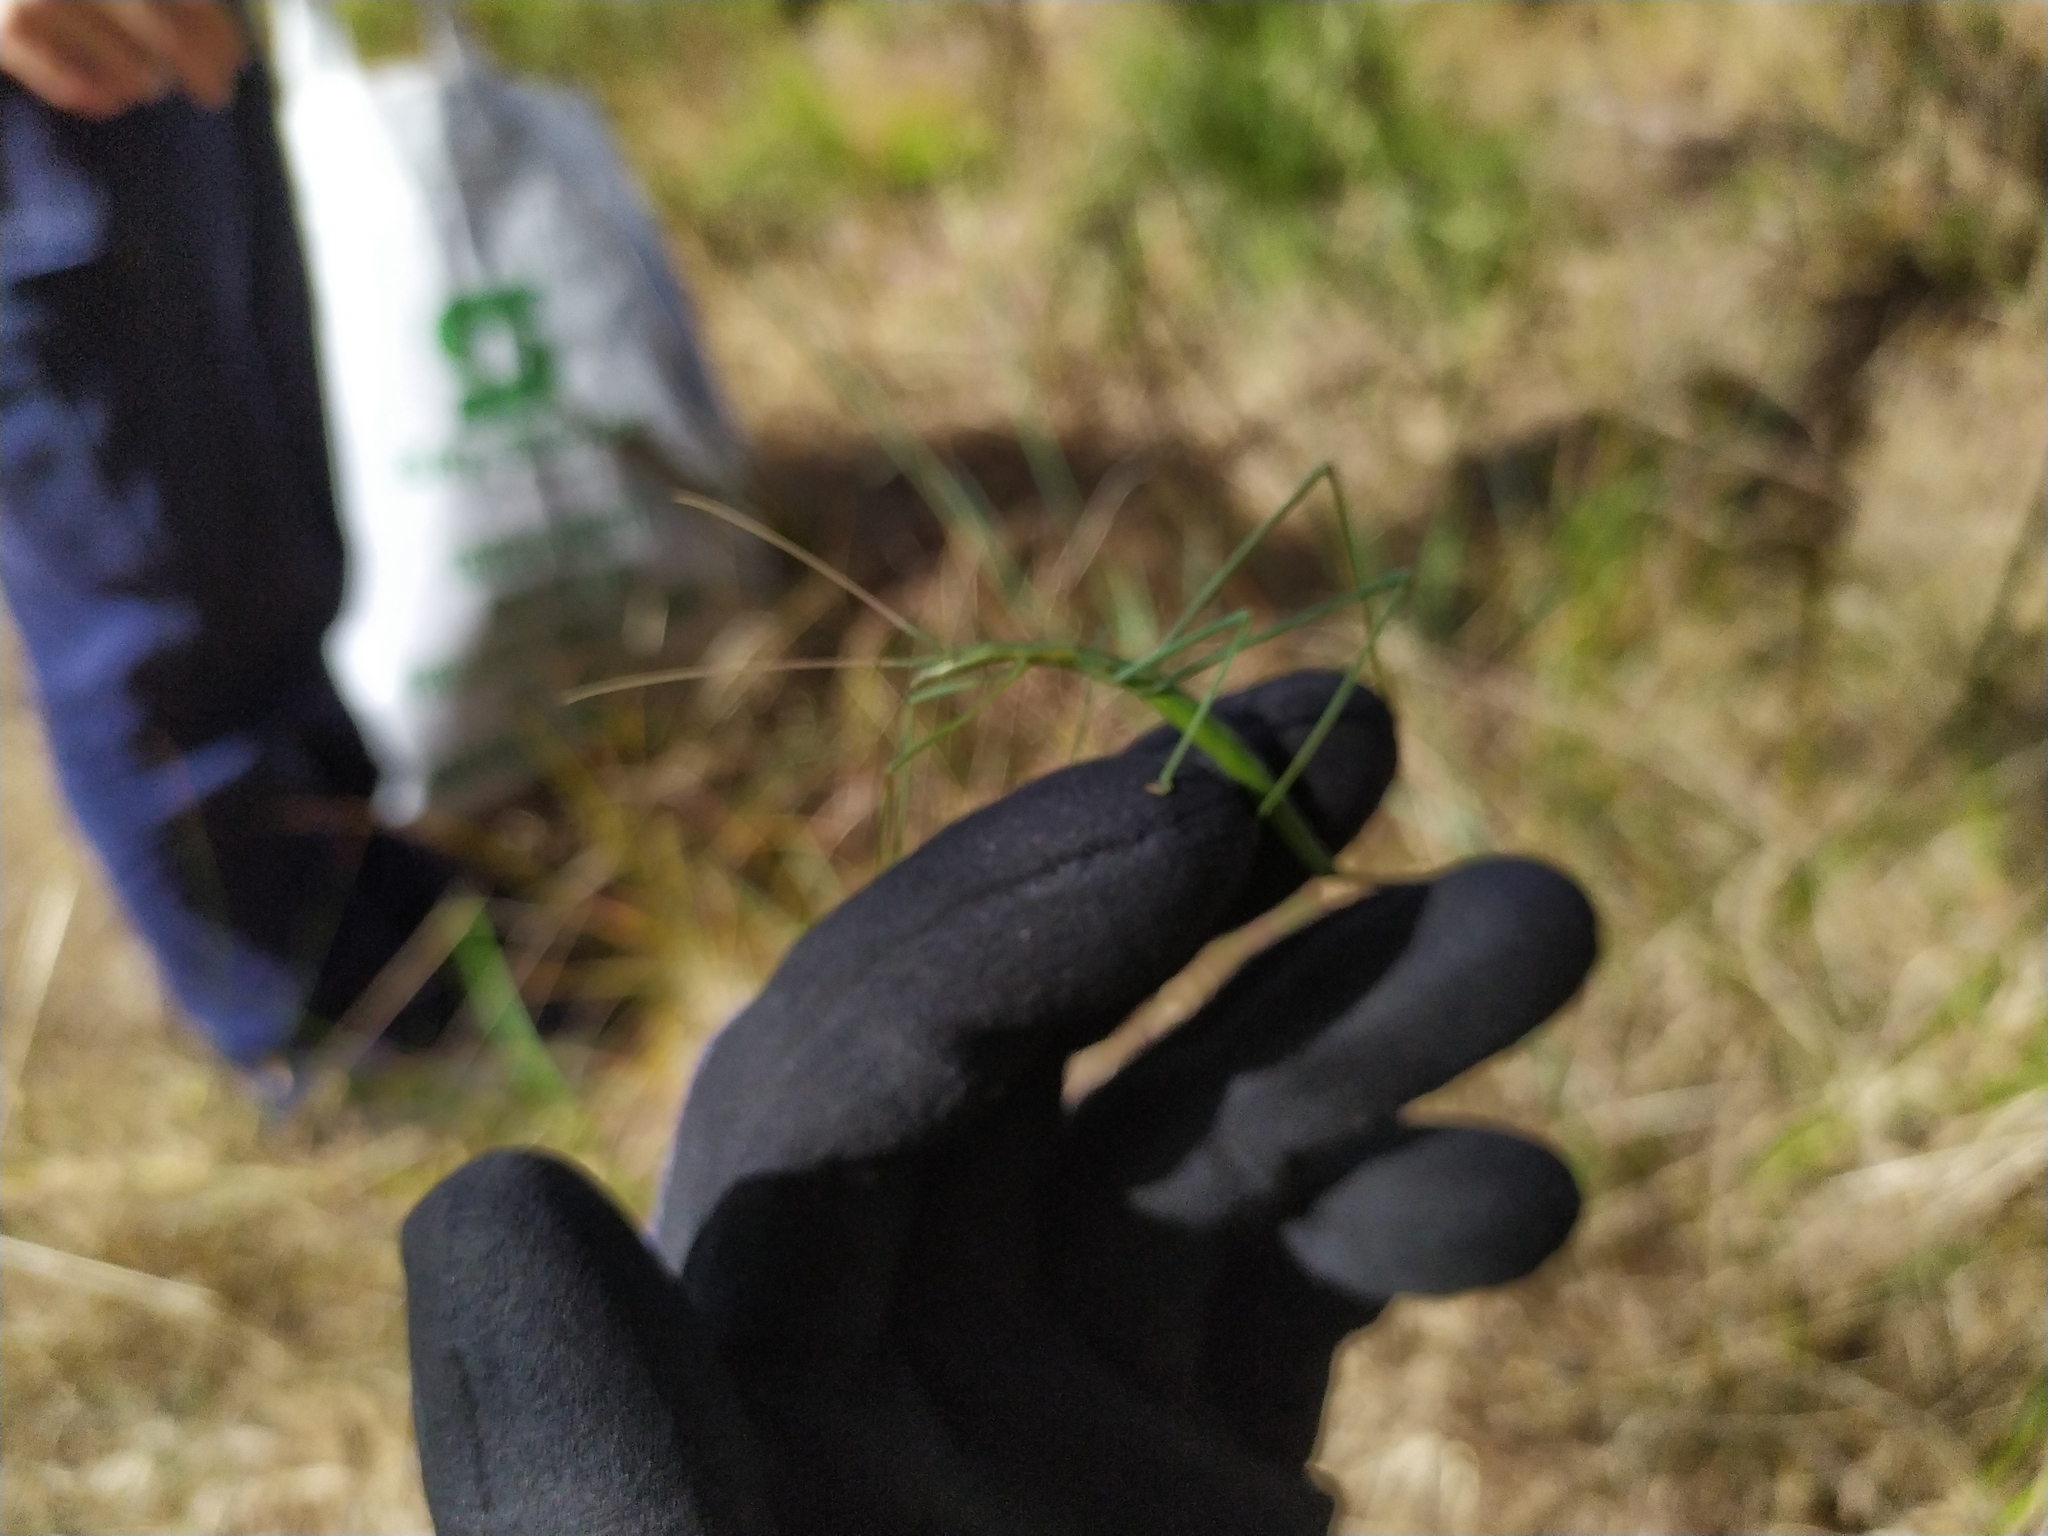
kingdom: Animalia
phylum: Arthropoda
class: Insecta
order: Orthoptera
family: Tettigoniidae
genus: Phasmodes
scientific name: Phasmodes ranatriformis
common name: King's park stick katydid
